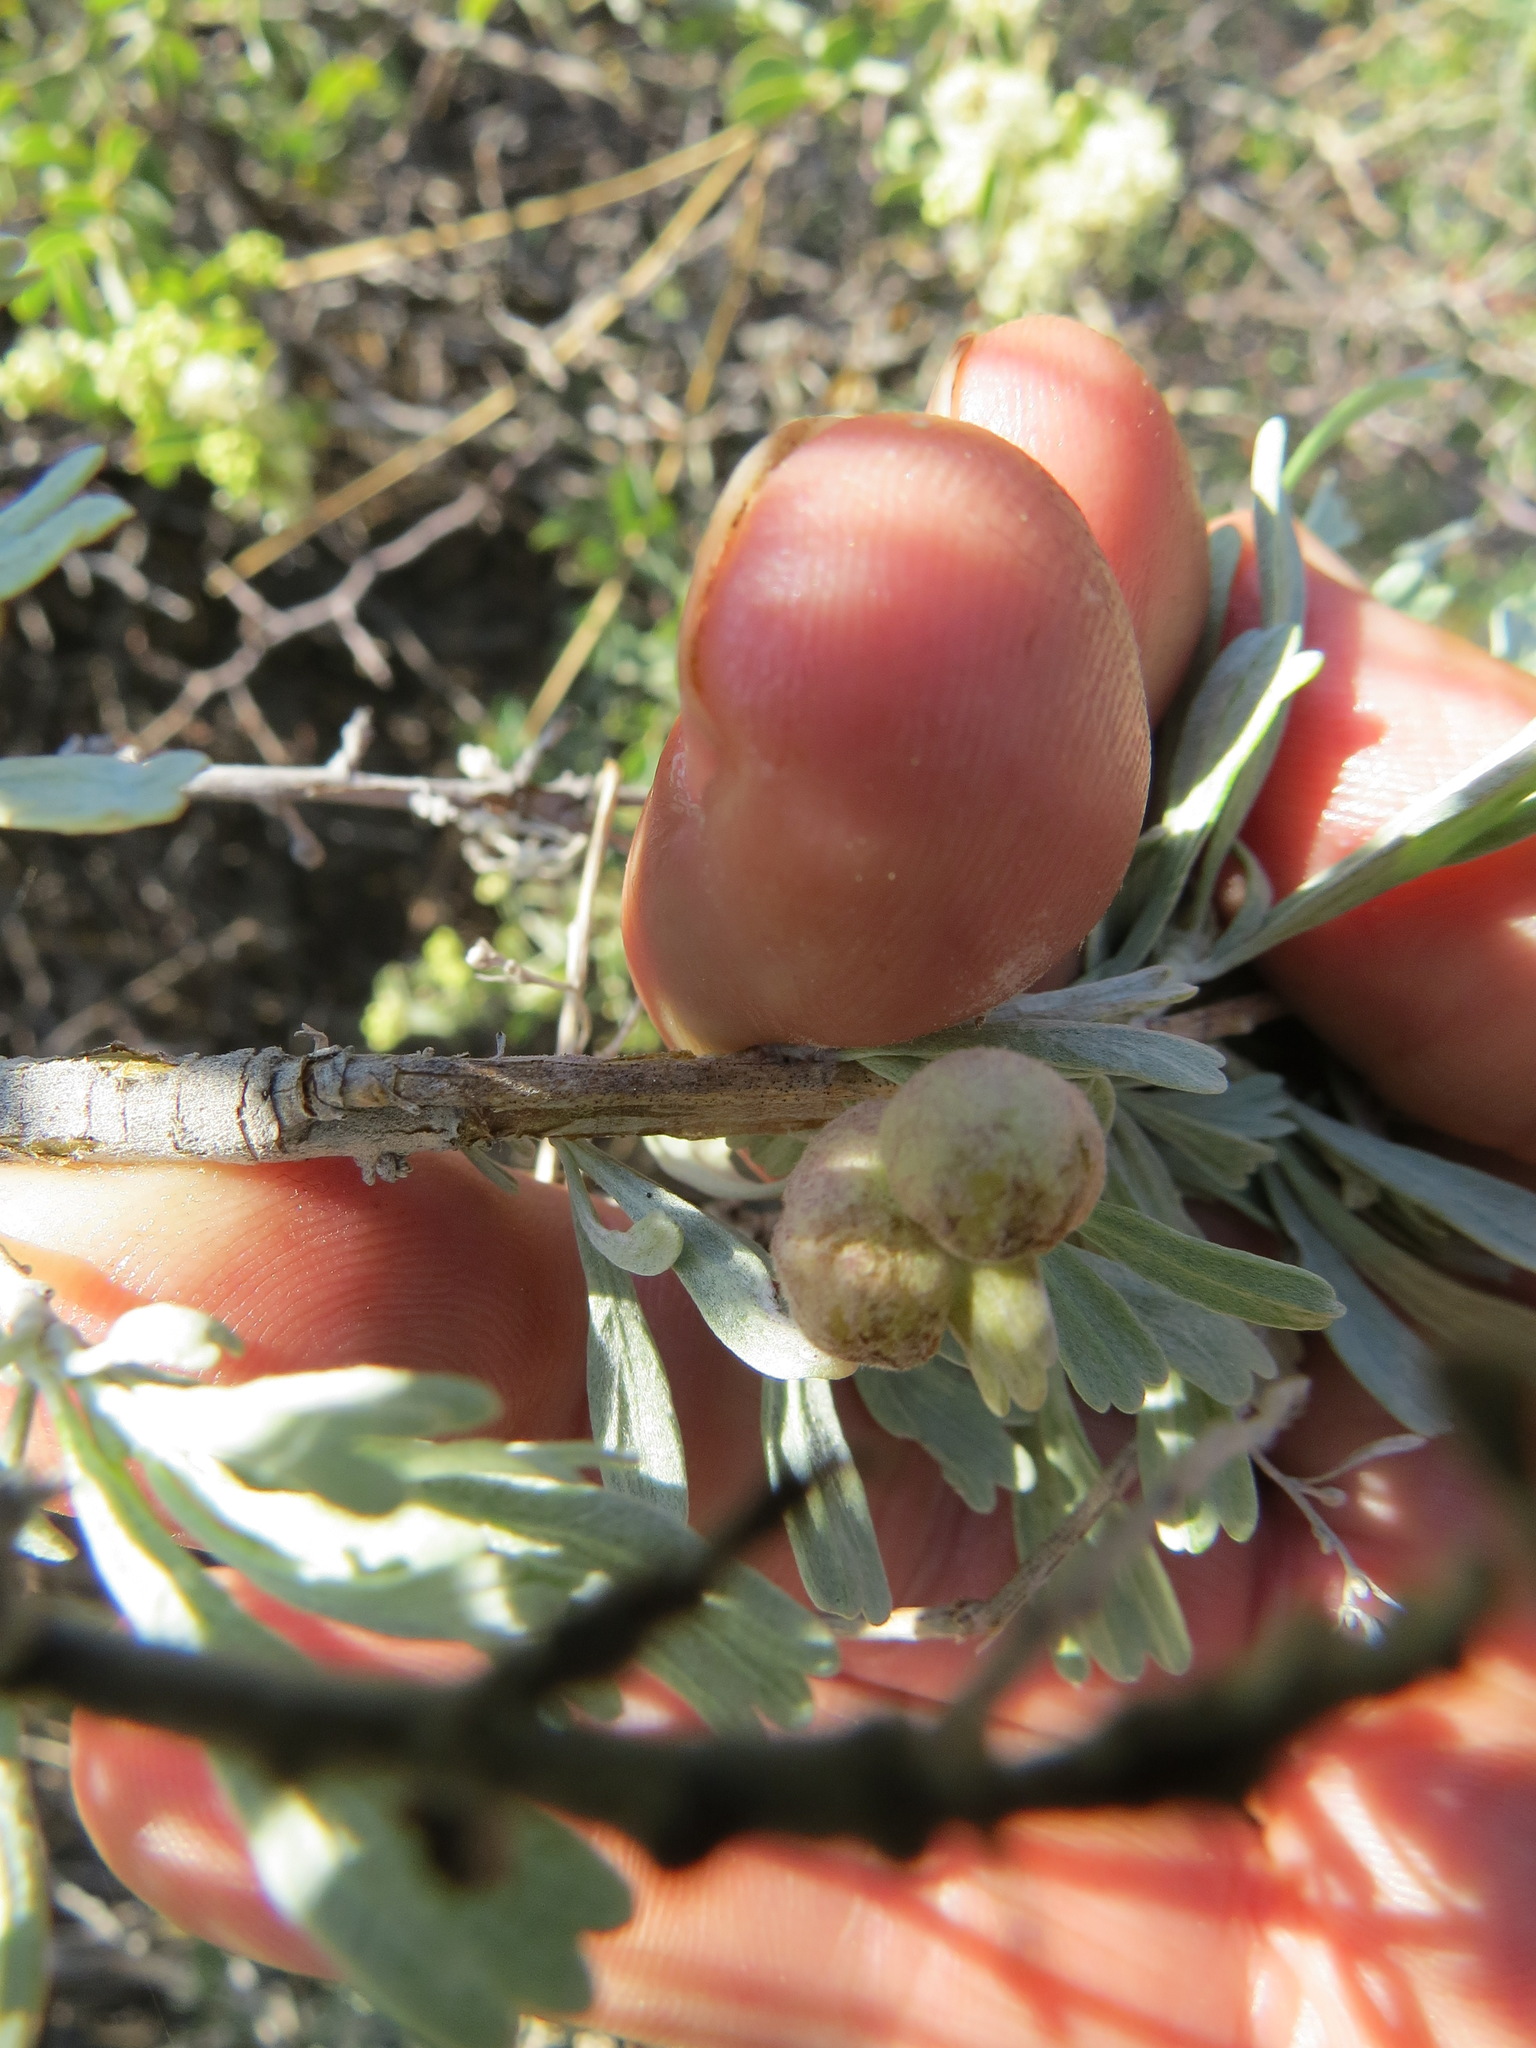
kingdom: Animalia
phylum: Arthropoda
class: Insecta
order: Diptera
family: Cecidomyiidae
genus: Rhopalomyia
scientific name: Rhopalomyia pomum
